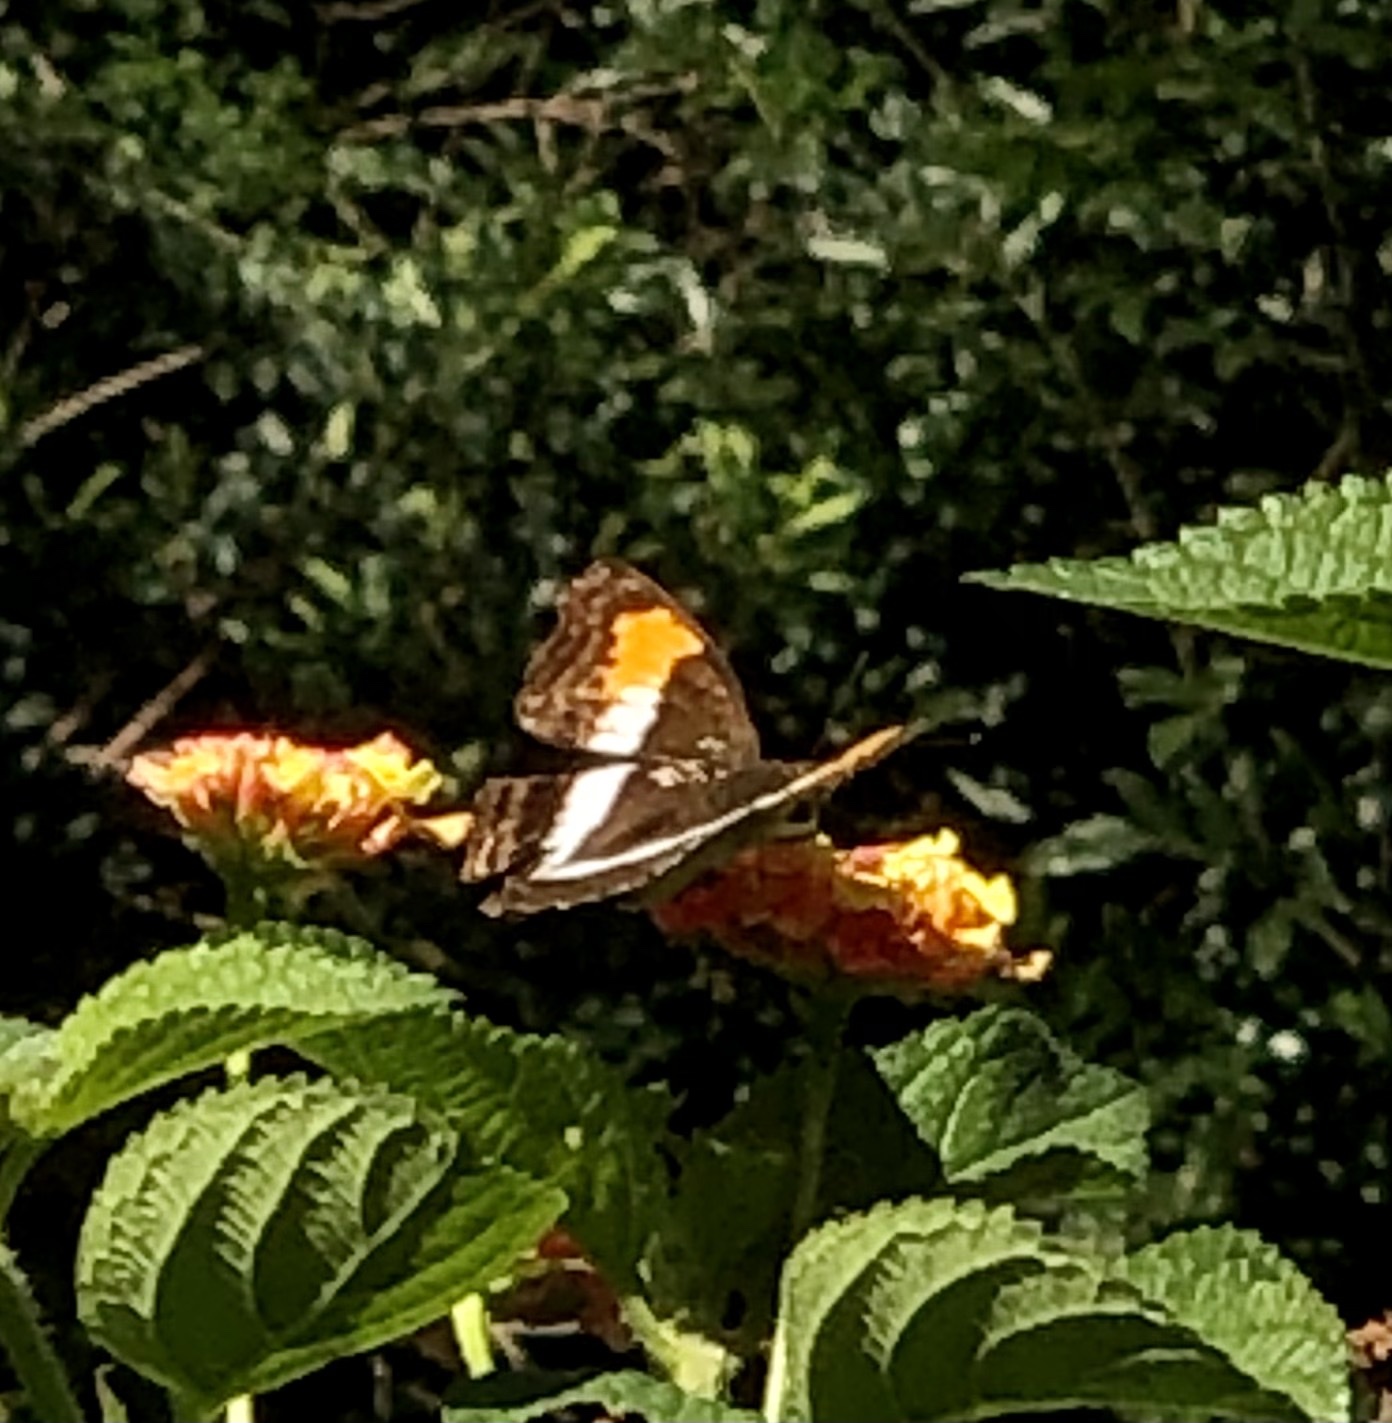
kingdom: Animalia
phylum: Arthropoda
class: Insecta
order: Lepidoptera
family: Nymphalidae
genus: Doxocopa
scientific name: Doxocopa laurentia
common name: Turquoise emperor
